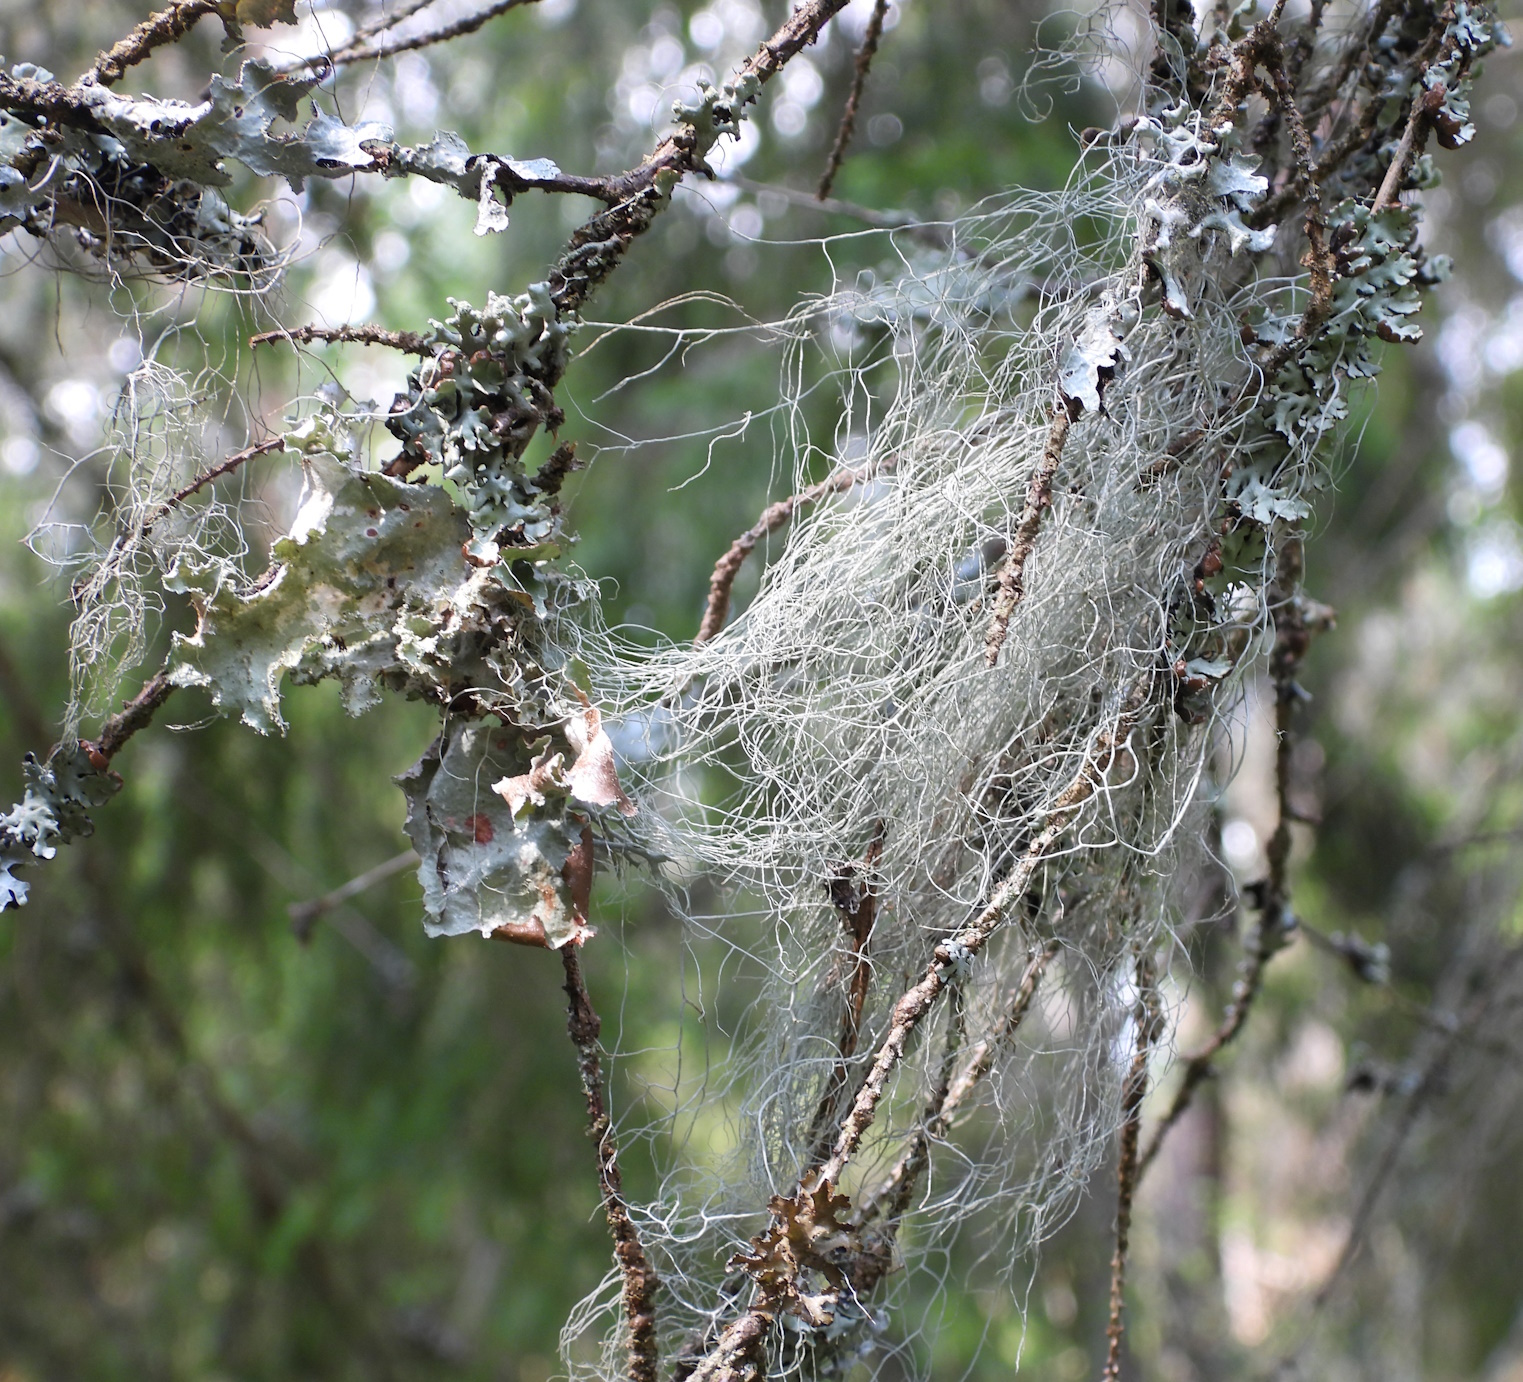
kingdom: Fungi
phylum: Ascomycota
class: Lecanoromycetes
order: Lecanorales
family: Parmeliaceae
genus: Bryoria
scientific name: Bryoria fuscescens
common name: Pale-footed horsehair lichen
